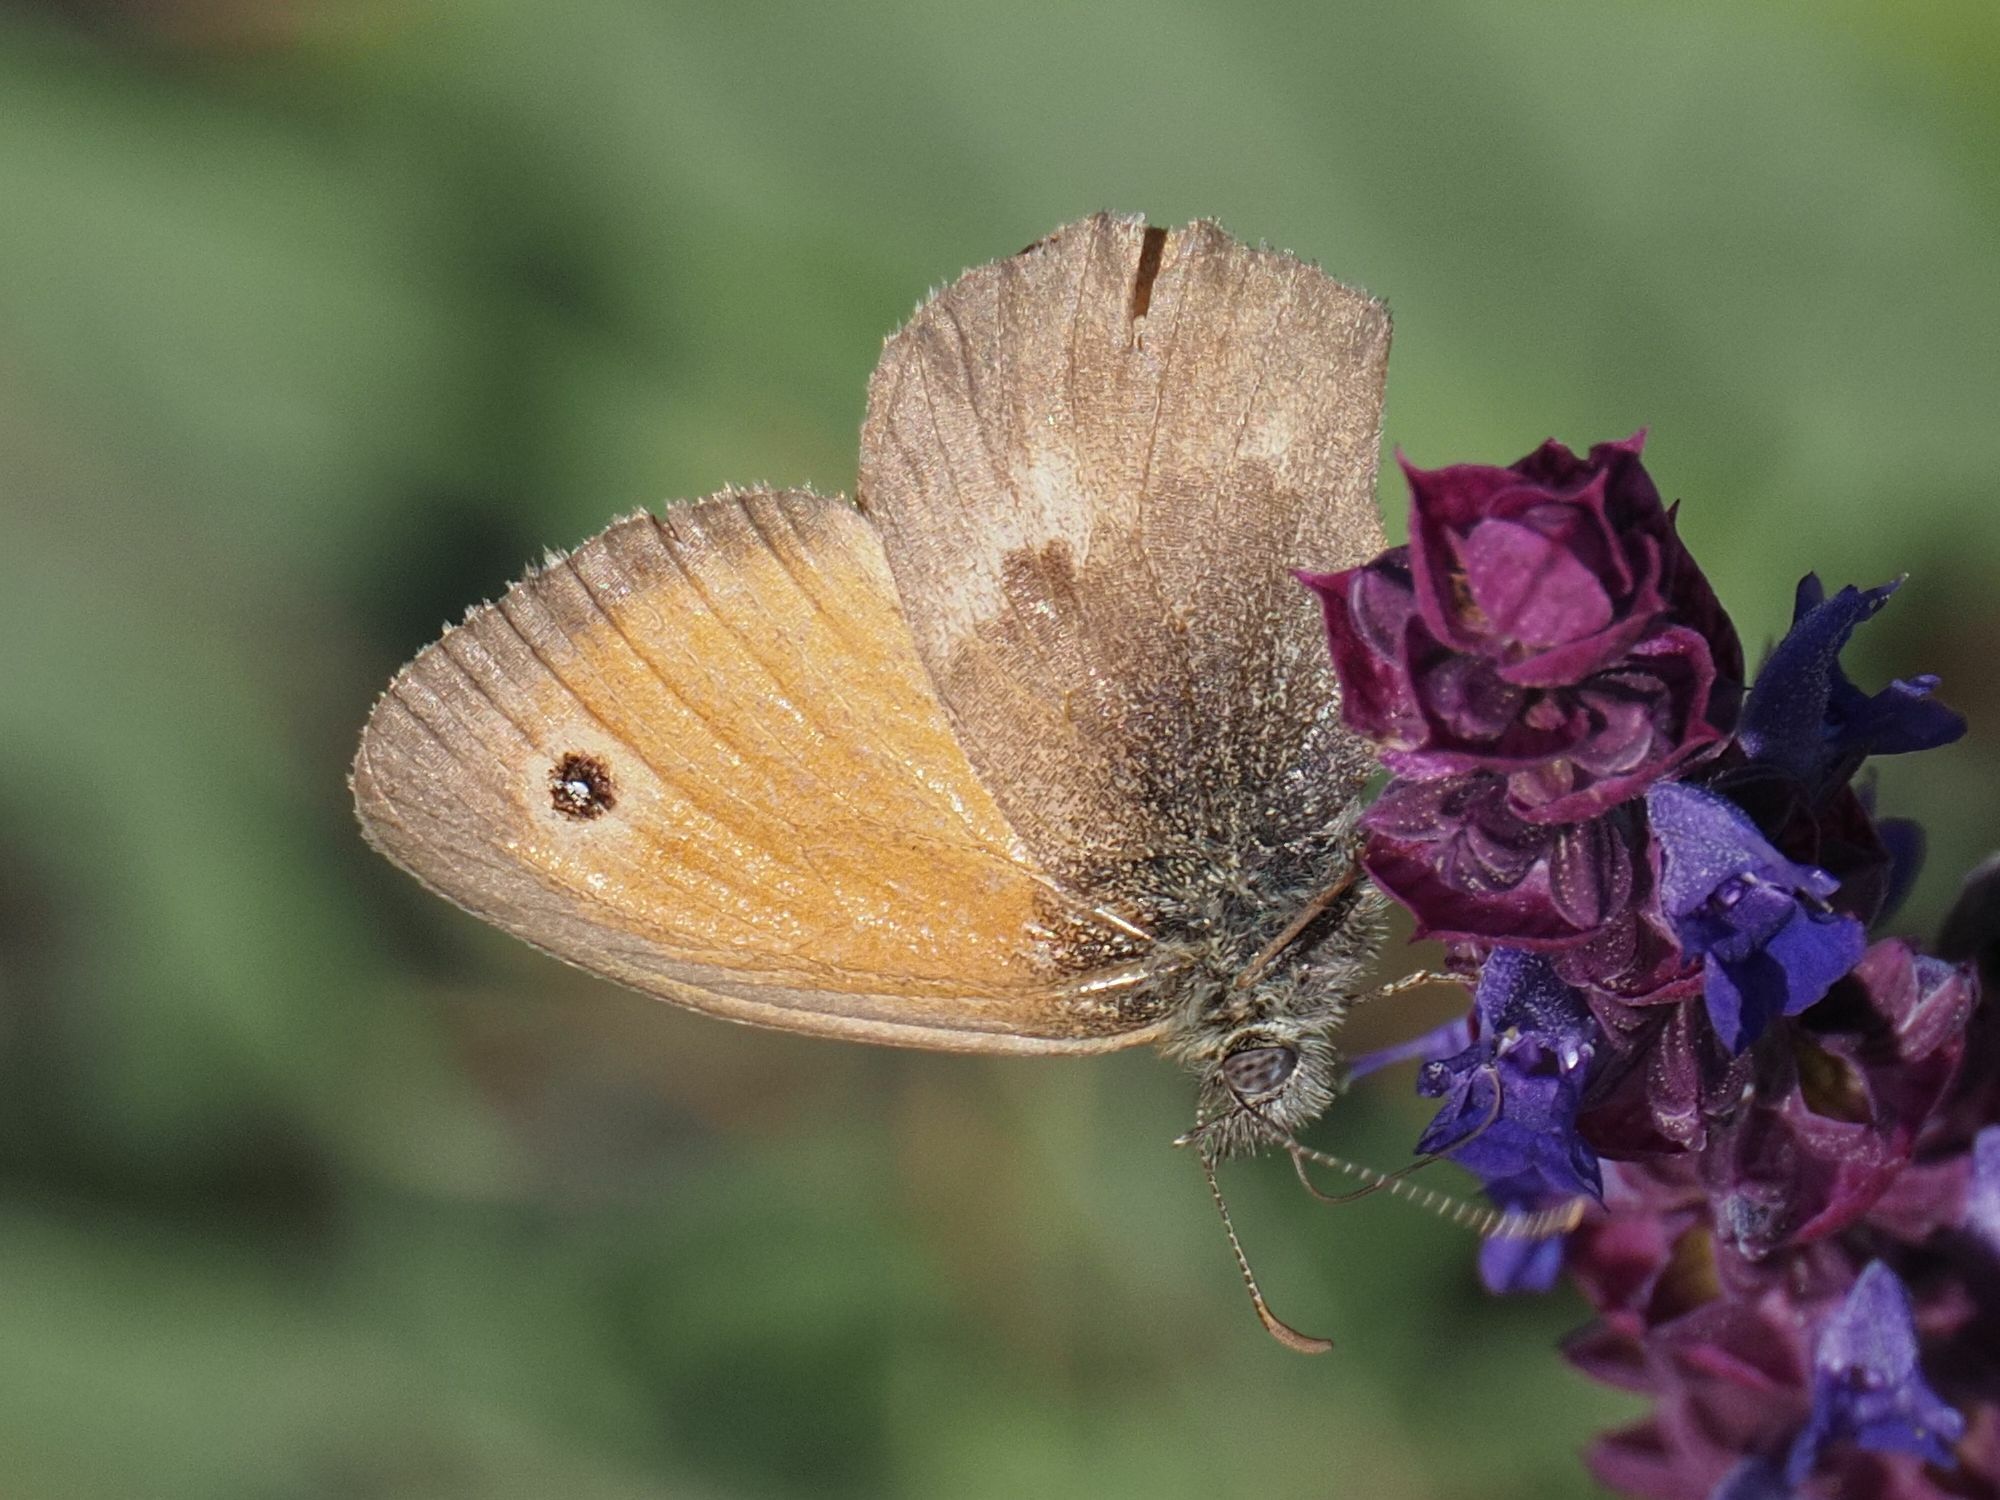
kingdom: Animalia
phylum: Arthropoda
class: Insecta
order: Lepidoptera
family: Nymphalidae
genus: Coenonympha
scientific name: Coenonympha pamphilus
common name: Small heath
